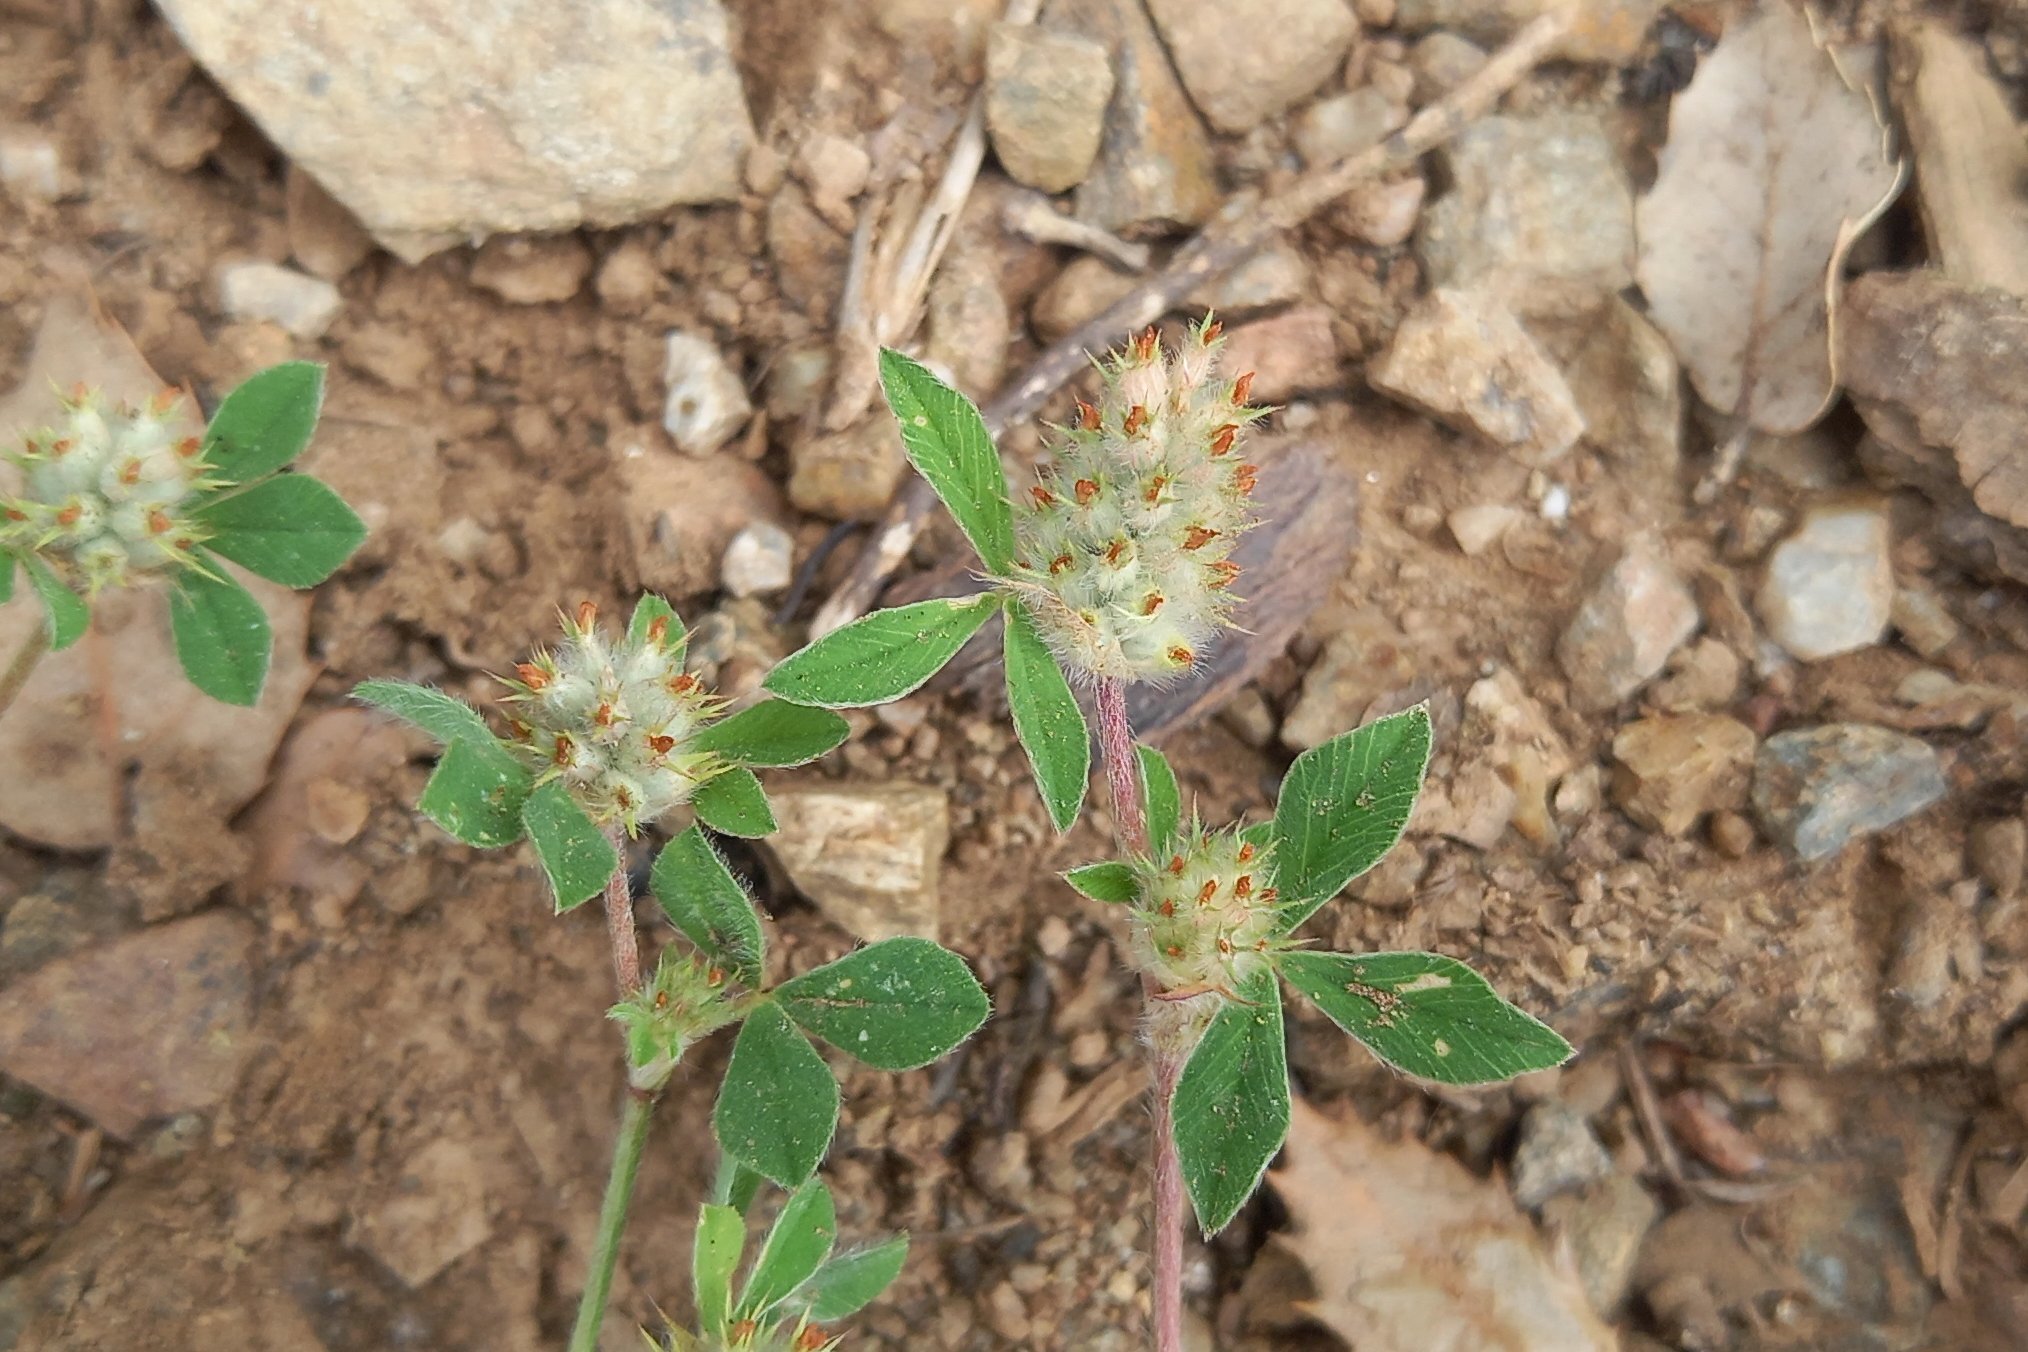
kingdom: Plantae
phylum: Tracheophyta
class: Magnoliopsida
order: Fabales
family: Fabaceae
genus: Trifolium
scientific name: Trifolium striatum
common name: Knotted clover
